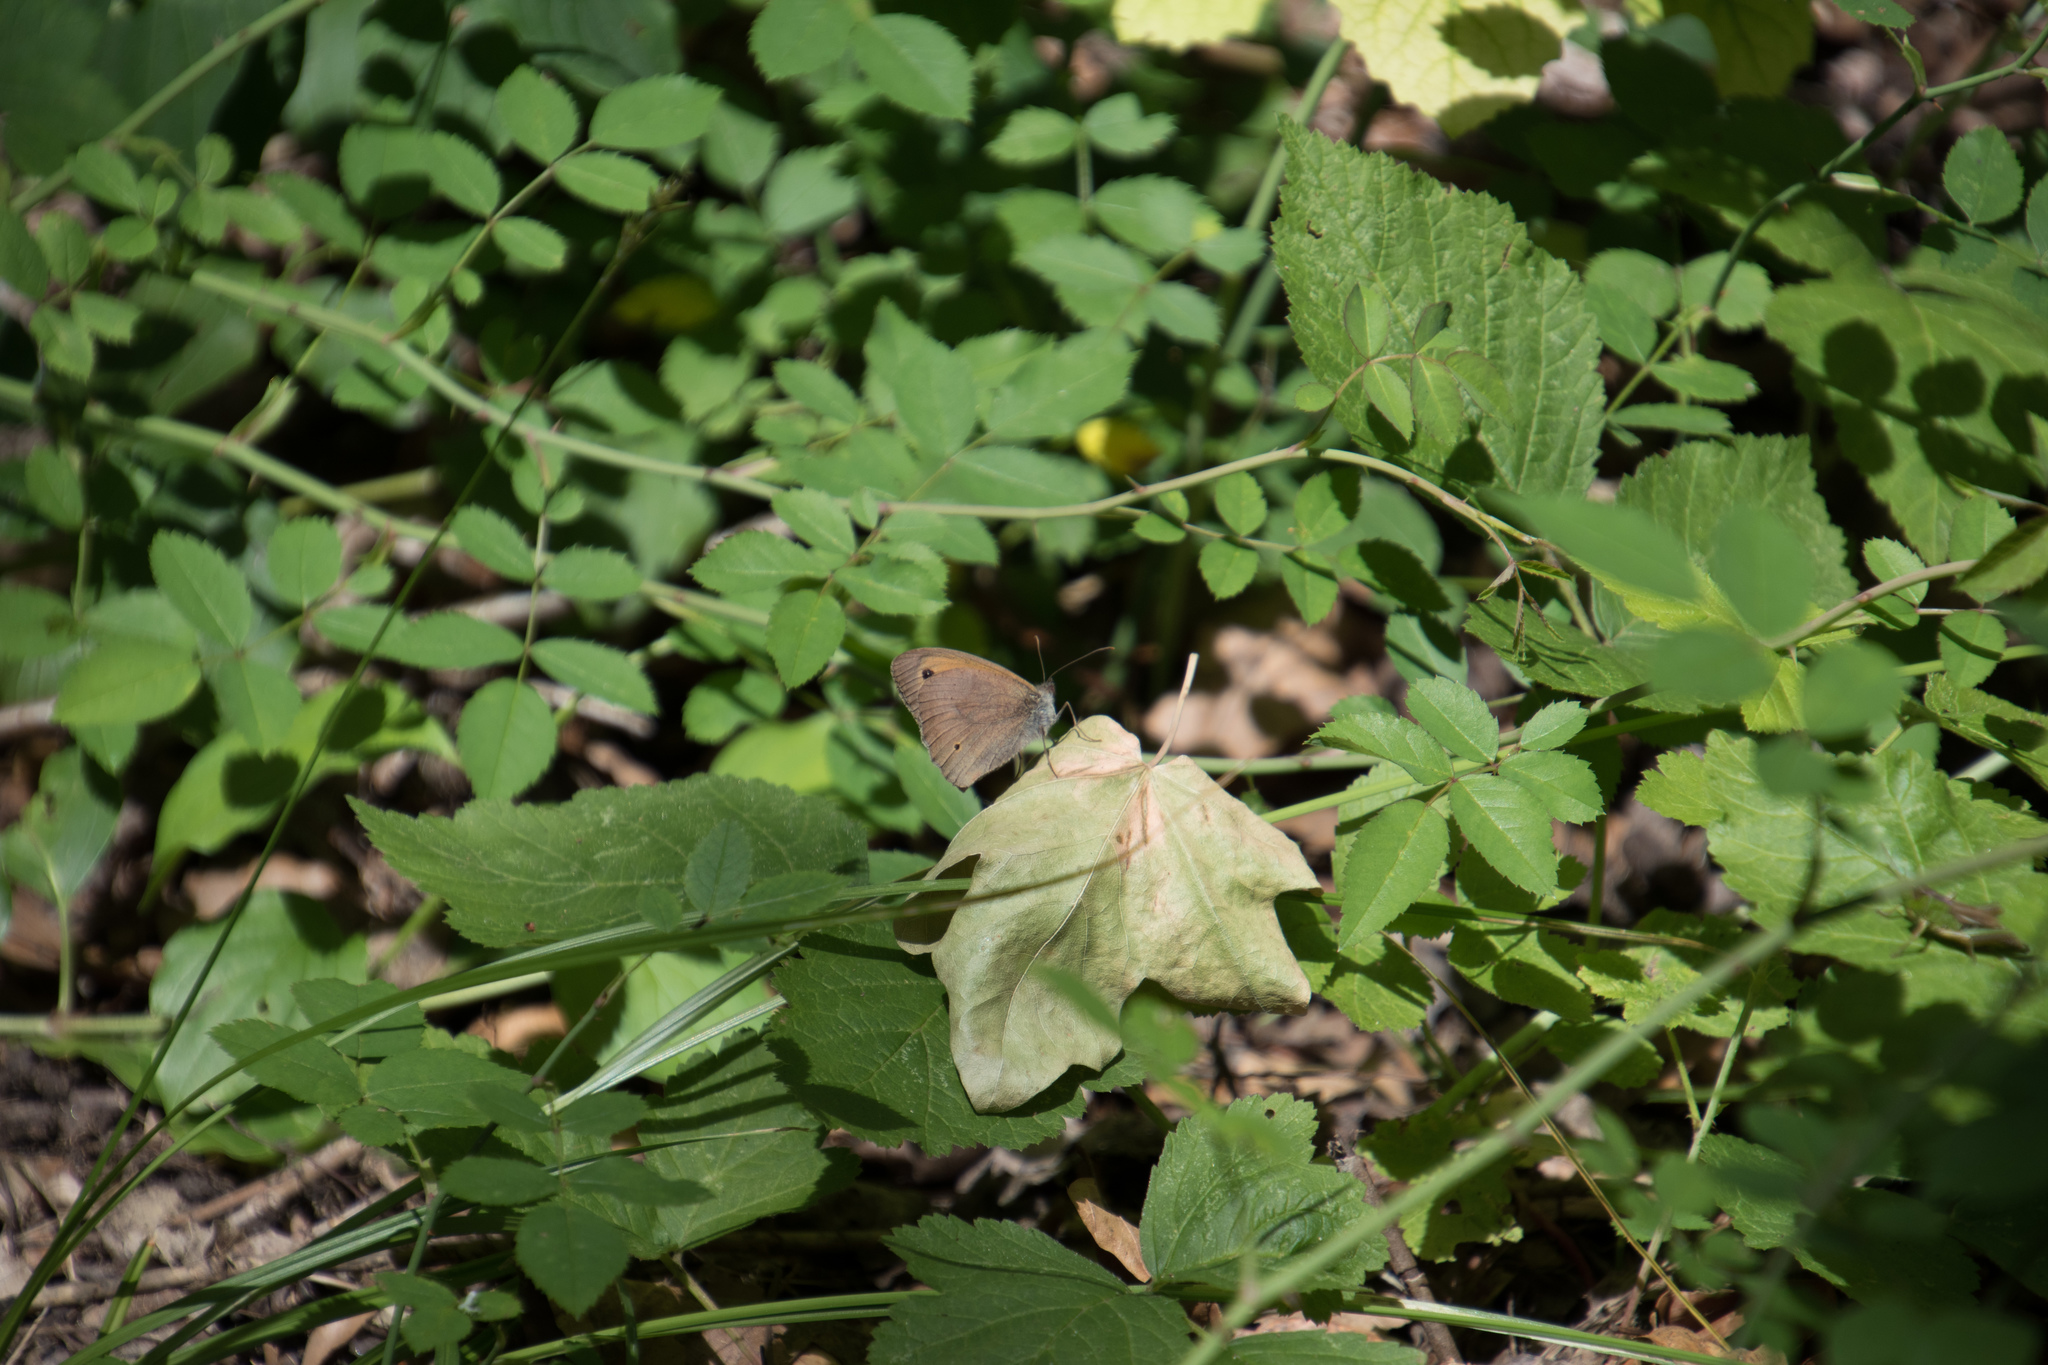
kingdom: Animalia
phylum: Arthropoda
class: Insecta
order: Lepidoptera
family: Nymphalidae
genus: Maniola
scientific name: Maniola jurtina
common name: Meadow brown
